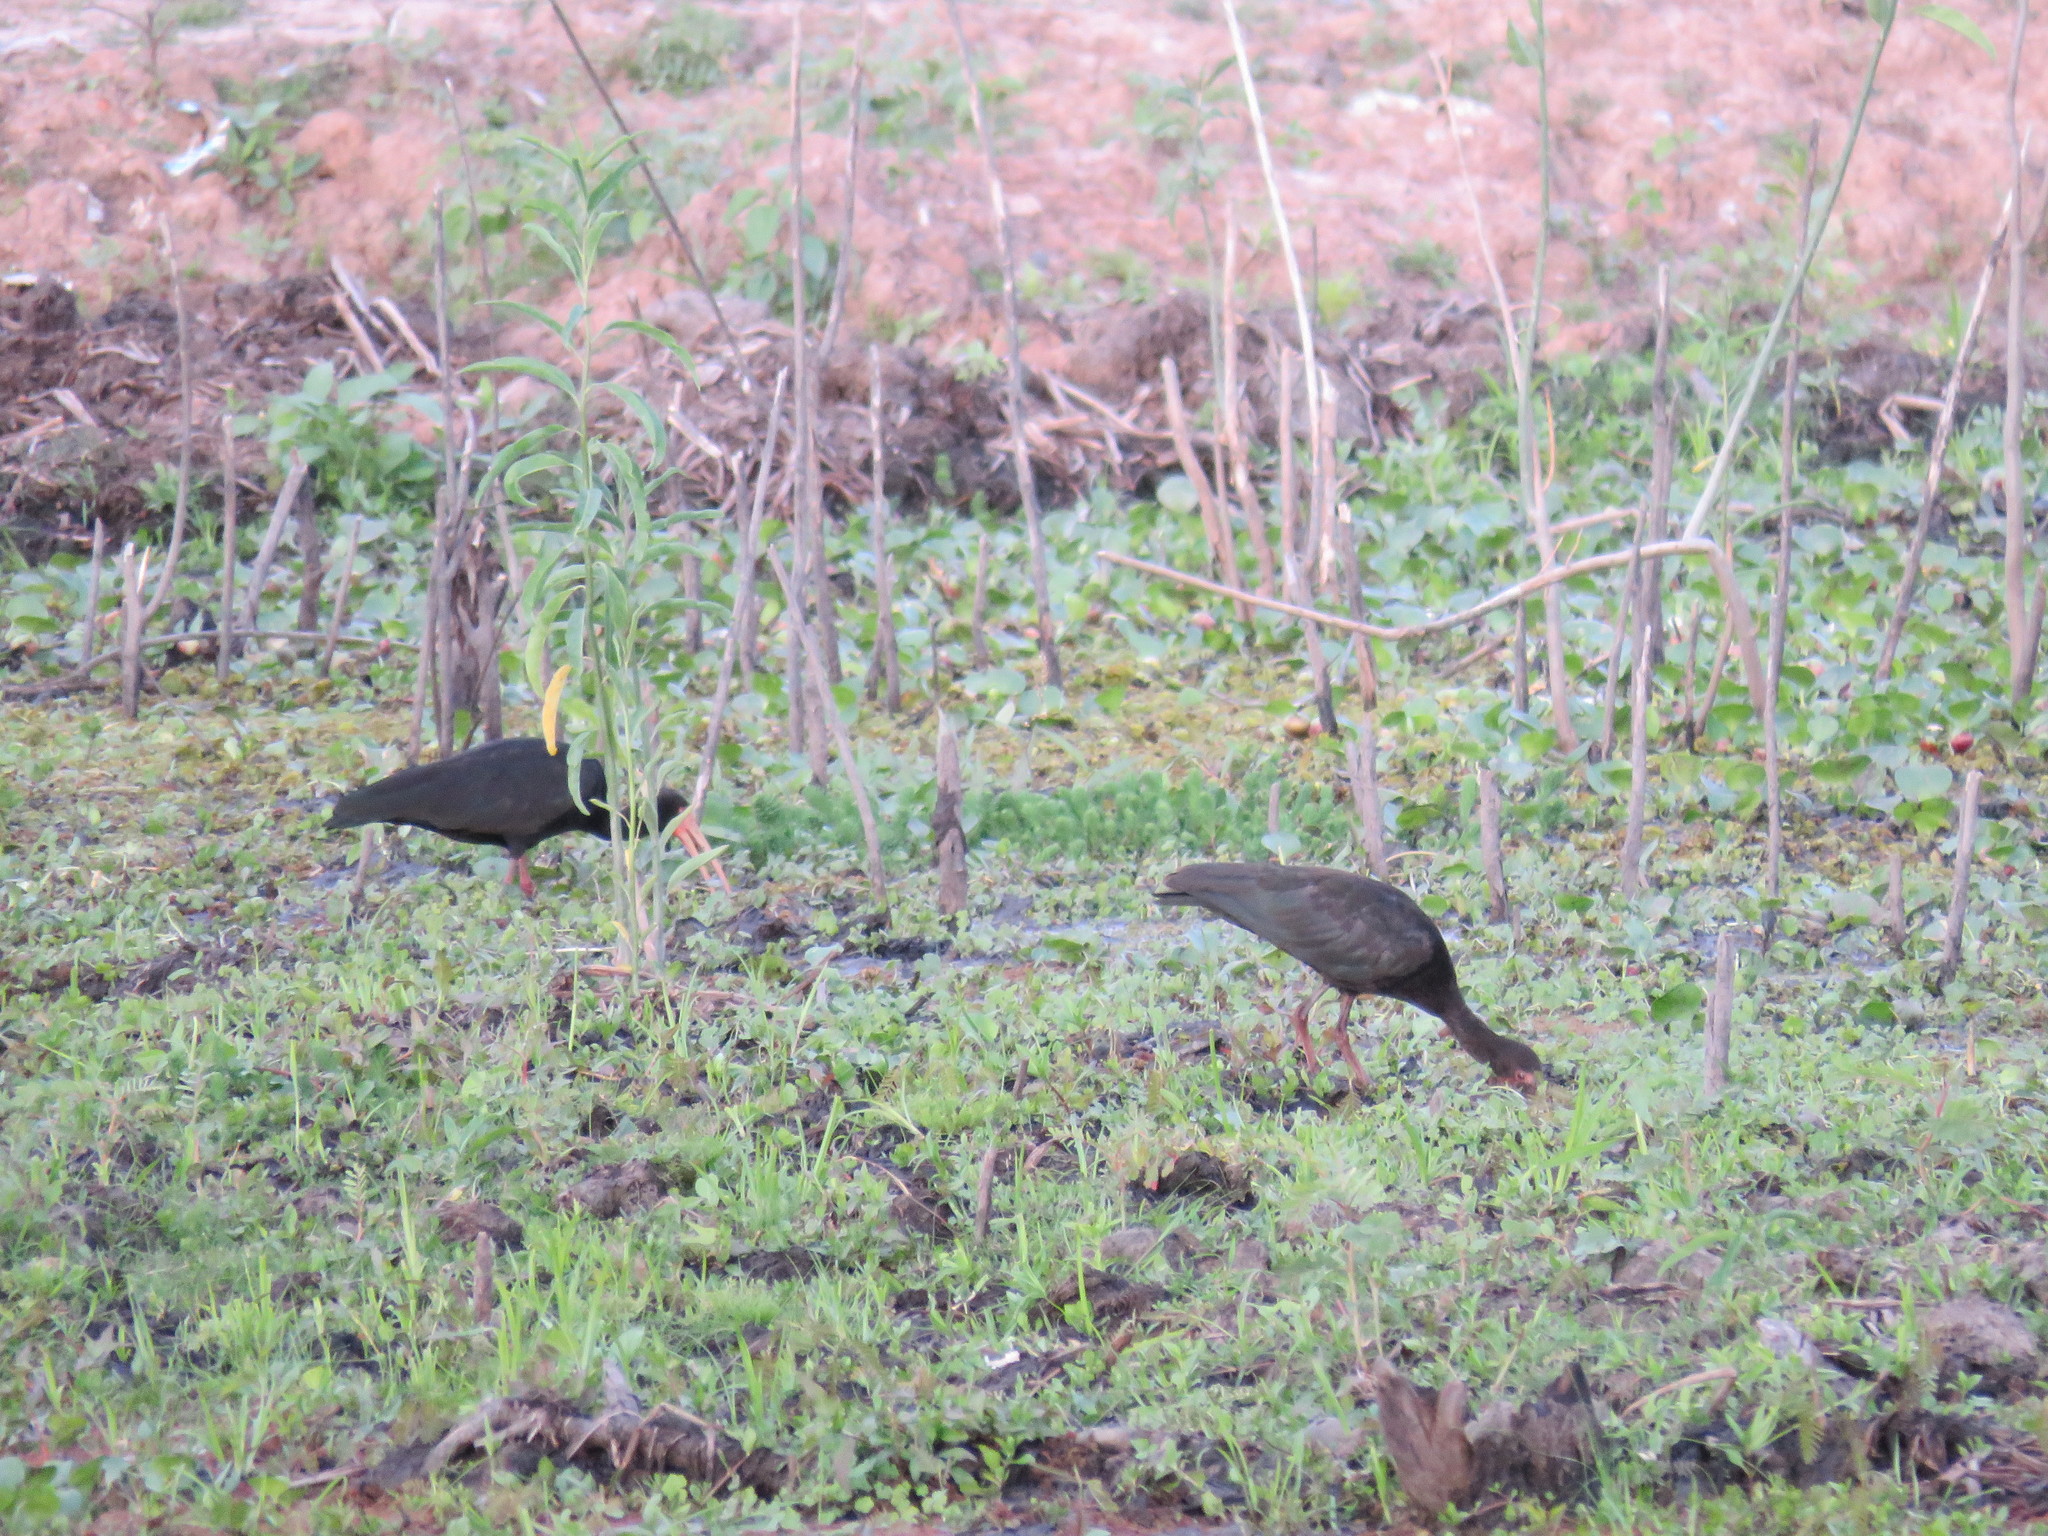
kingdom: Animalia
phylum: Chordata
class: Aves
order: Pelecaniformes
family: Threskiornithidae
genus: Phimosus
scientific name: Phimosus infuscatus
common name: Bare-faced ibis
